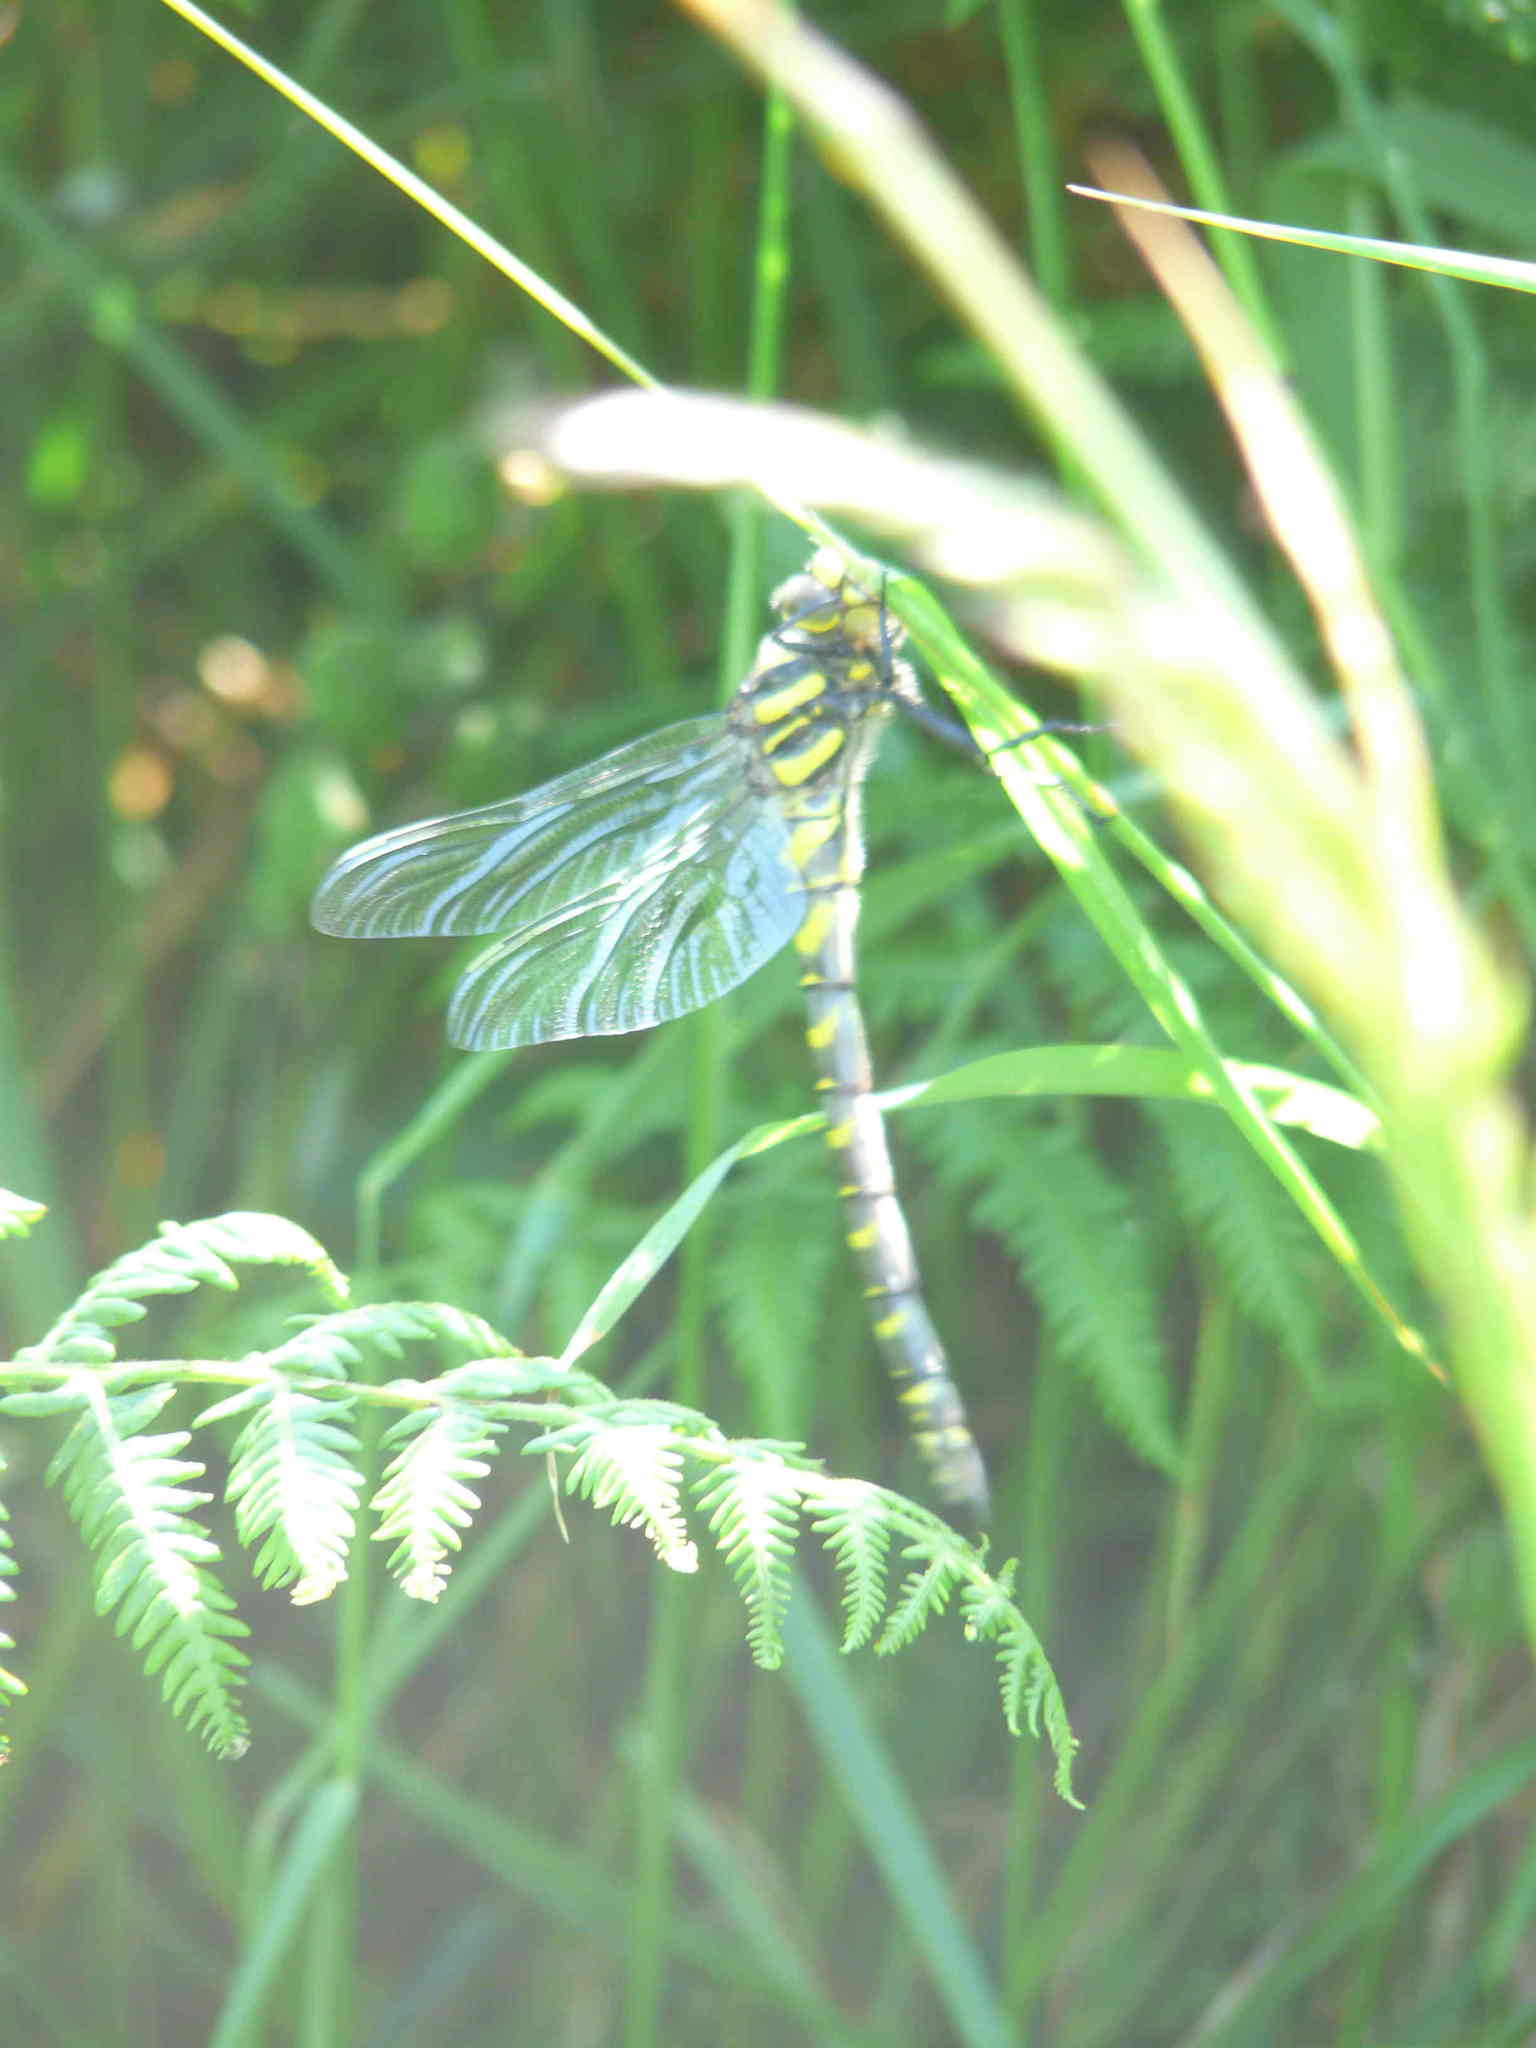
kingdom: Animalia
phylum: Arthropoda
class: Insecta
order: Odonata
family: Cordulegastridae
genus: Cordulegaster
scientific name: Cordulegaster boltonii
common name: Golden-ringed dragonfly
